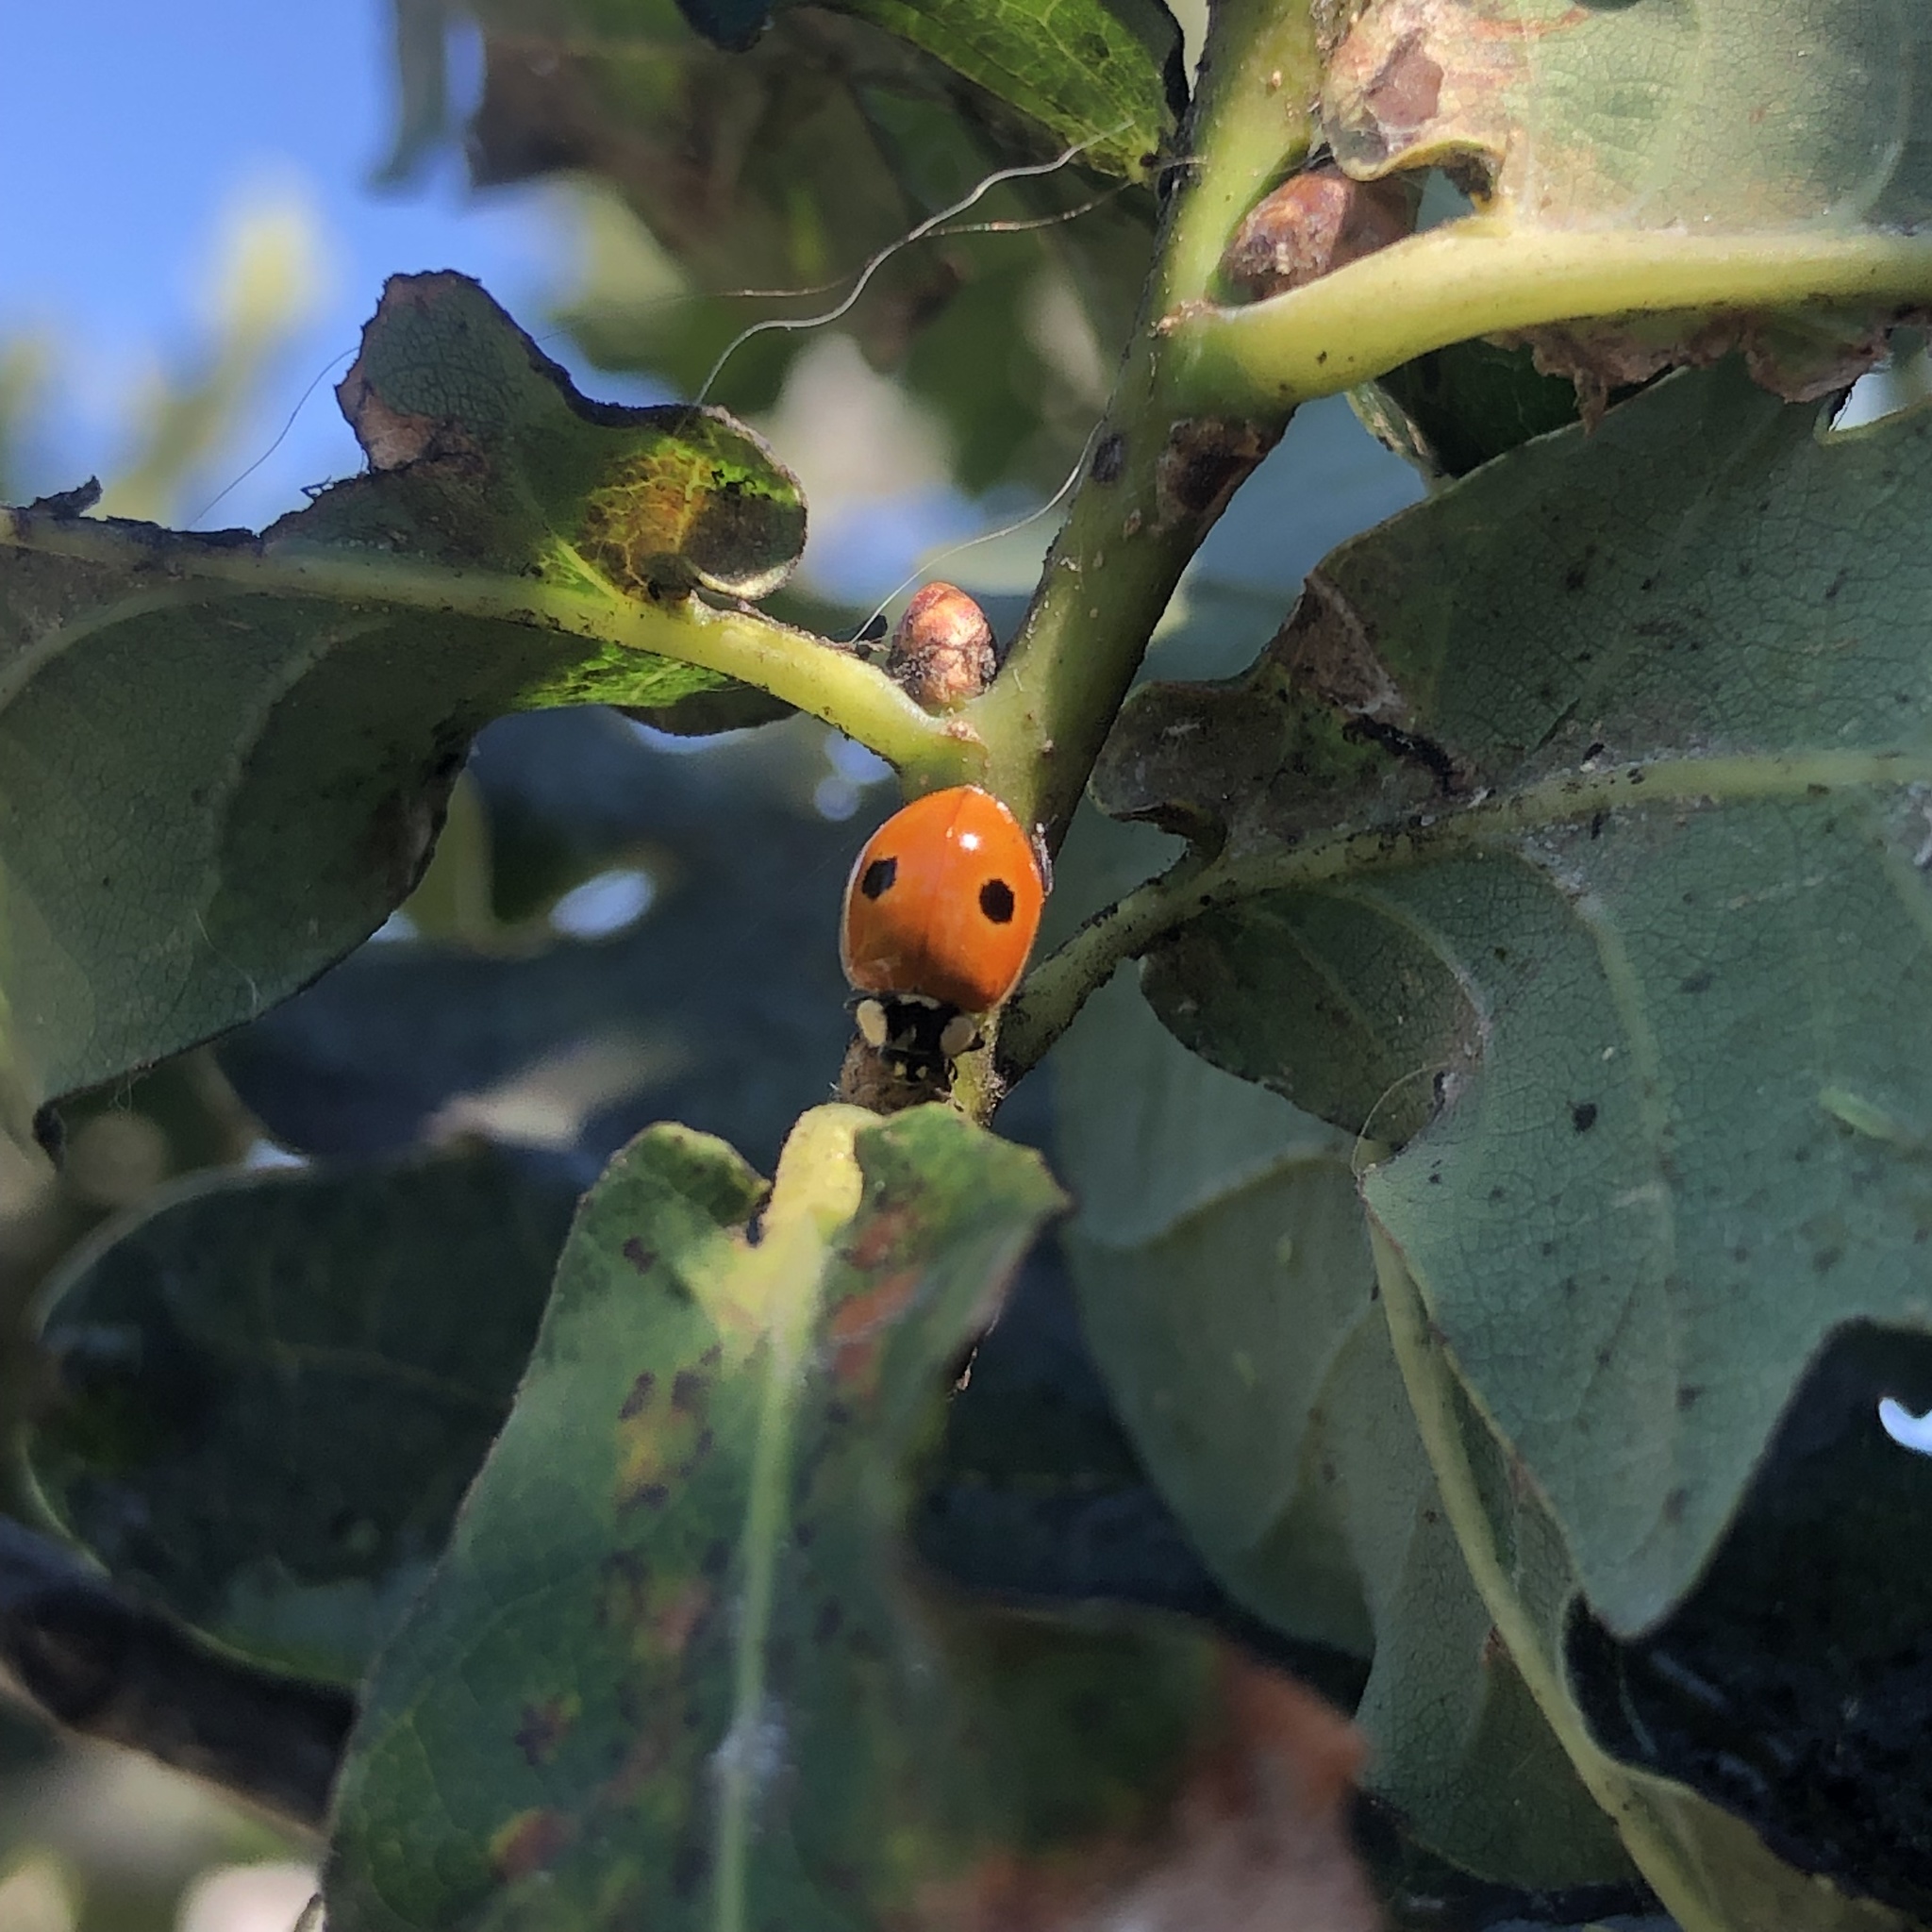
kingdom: Animalia
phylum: Arthropoda
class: Insecta
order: Coleoptera
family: Coccinellidae
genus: Adalia
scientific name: Adalia bipunctata
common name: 2-spot ladybird
